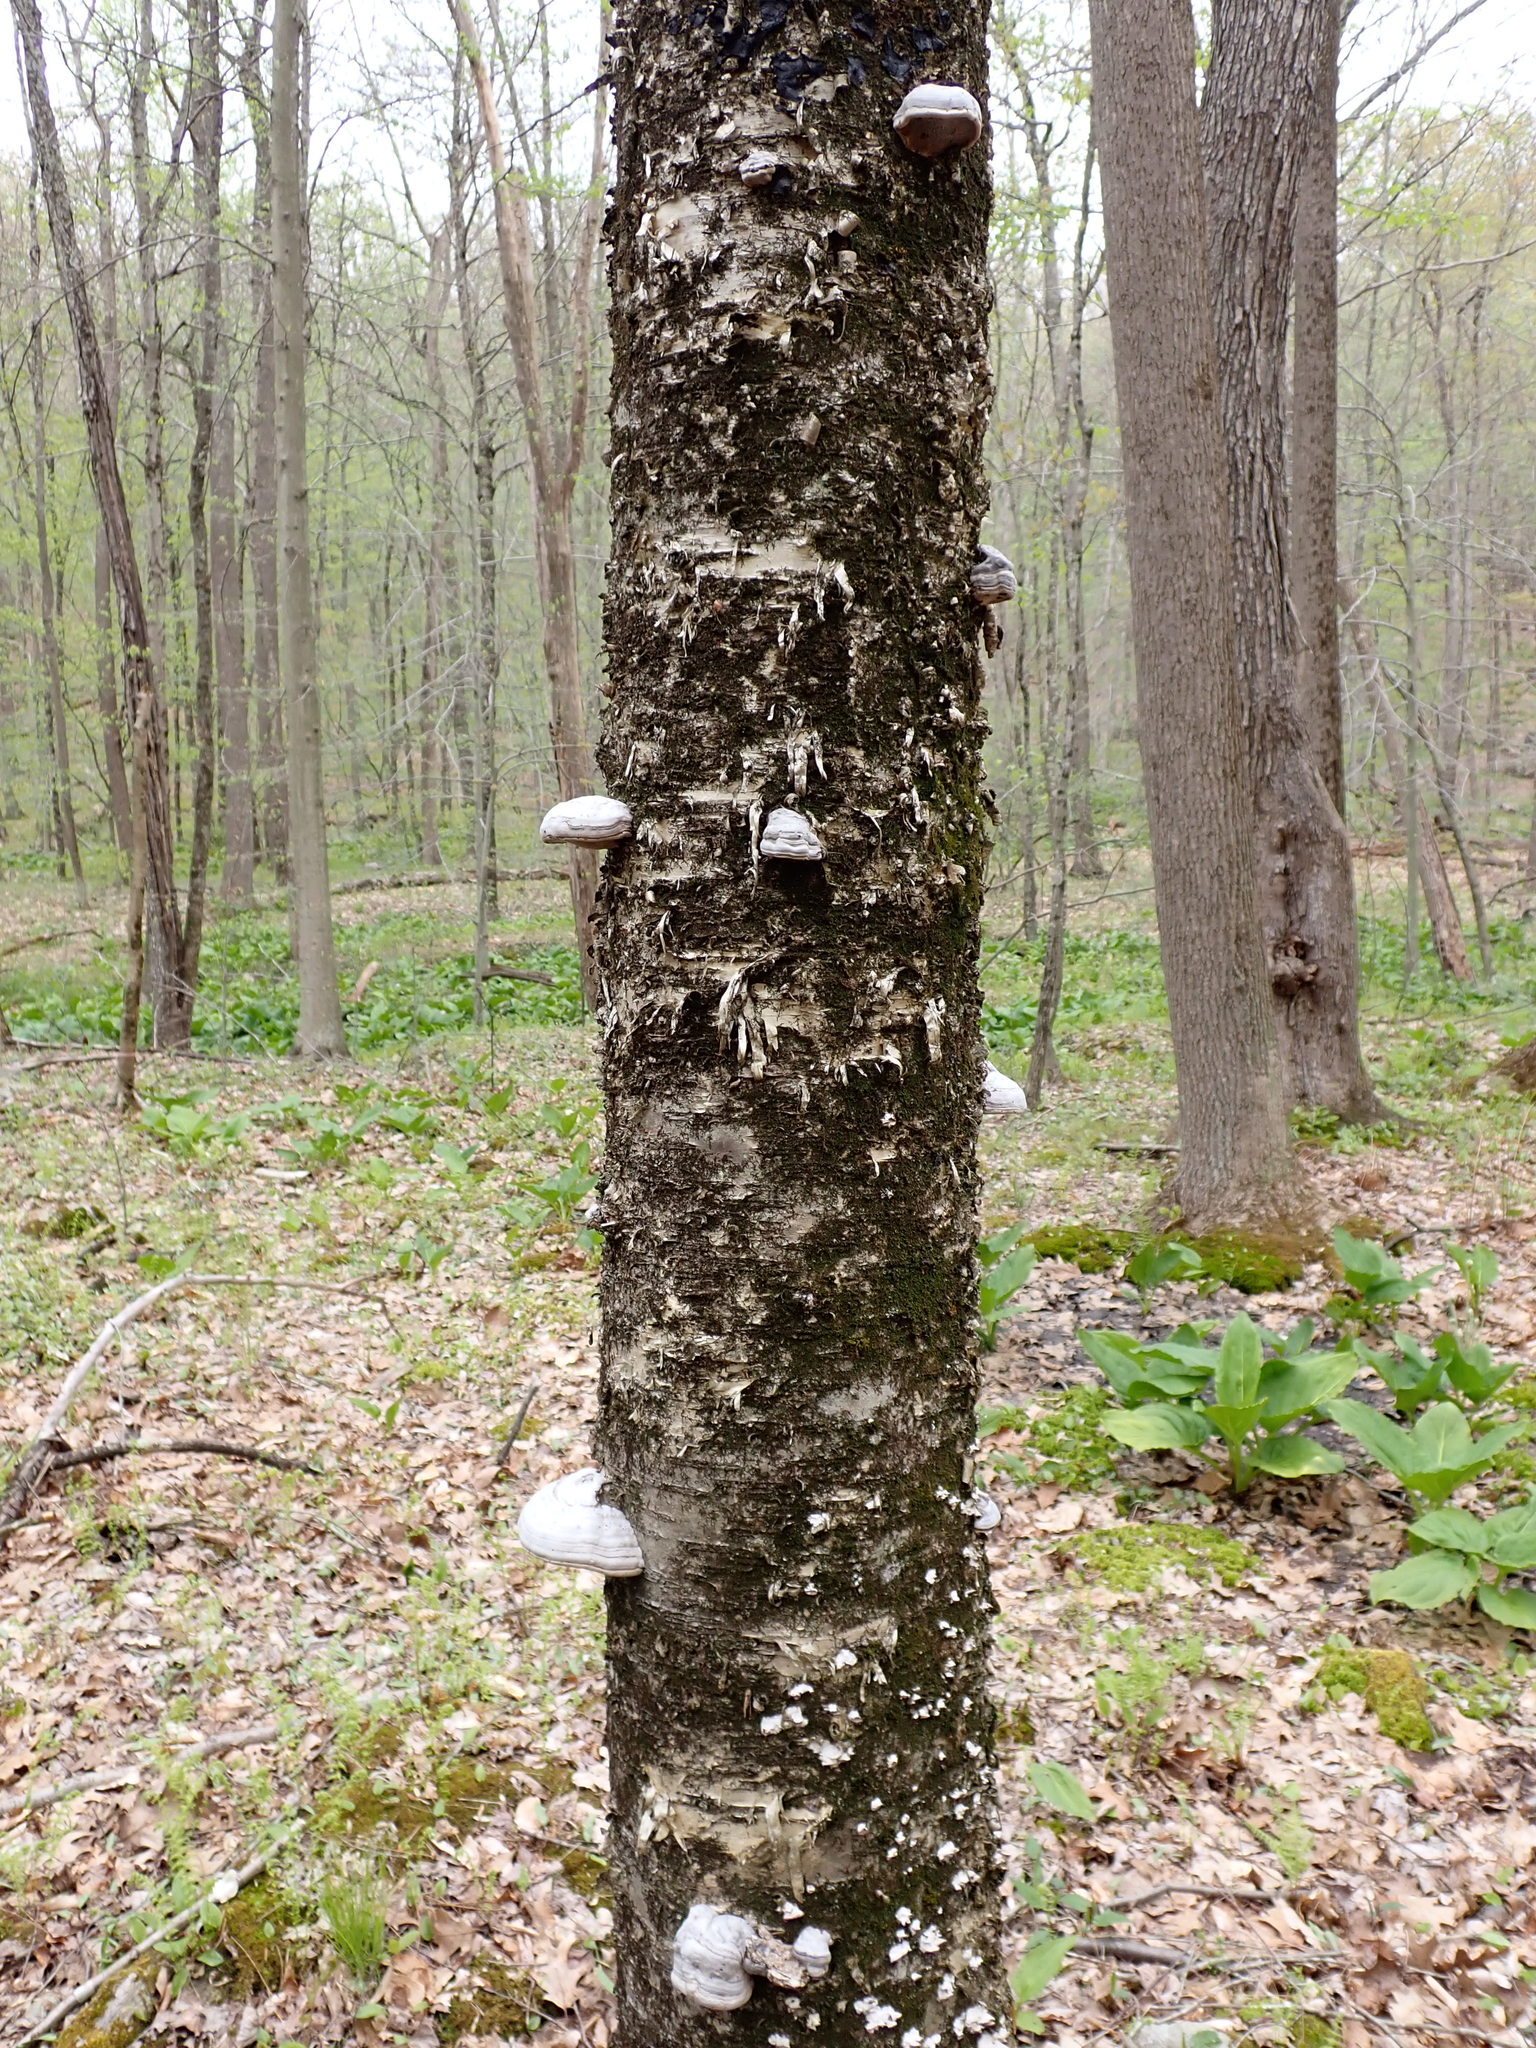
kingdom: Fungi
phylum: Basidiomycota
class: Agaricomycetes
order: Polyporales
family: Polyporaceae
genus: Fomes
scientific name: Fomes fomentarius
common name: Hoof fungus
